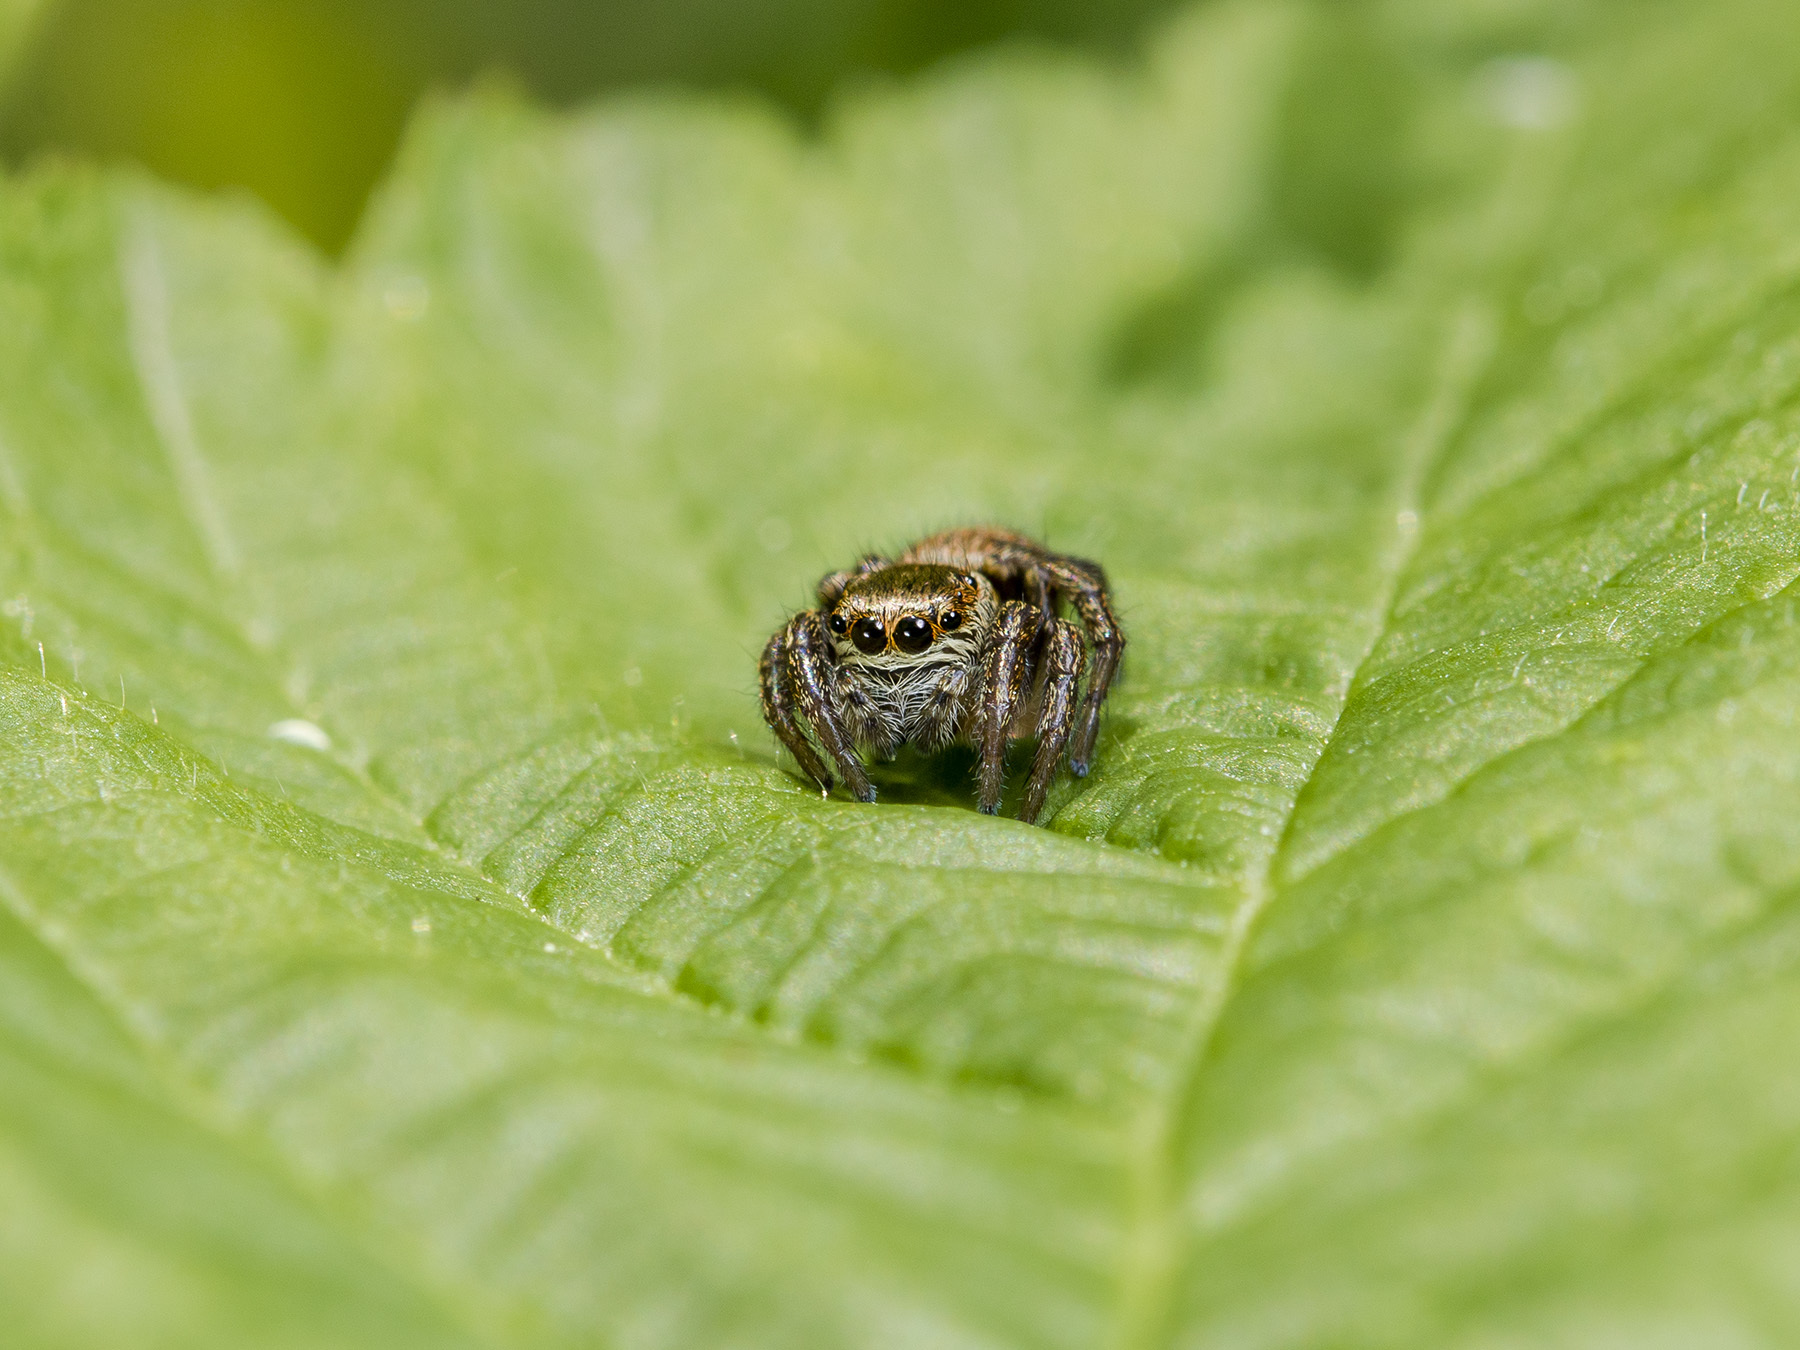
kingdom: Animalia
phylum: Arthropoda
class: Arachnida
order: Araneae
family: Salticidae
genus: Evarcha
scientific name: Evarcha arcuata
